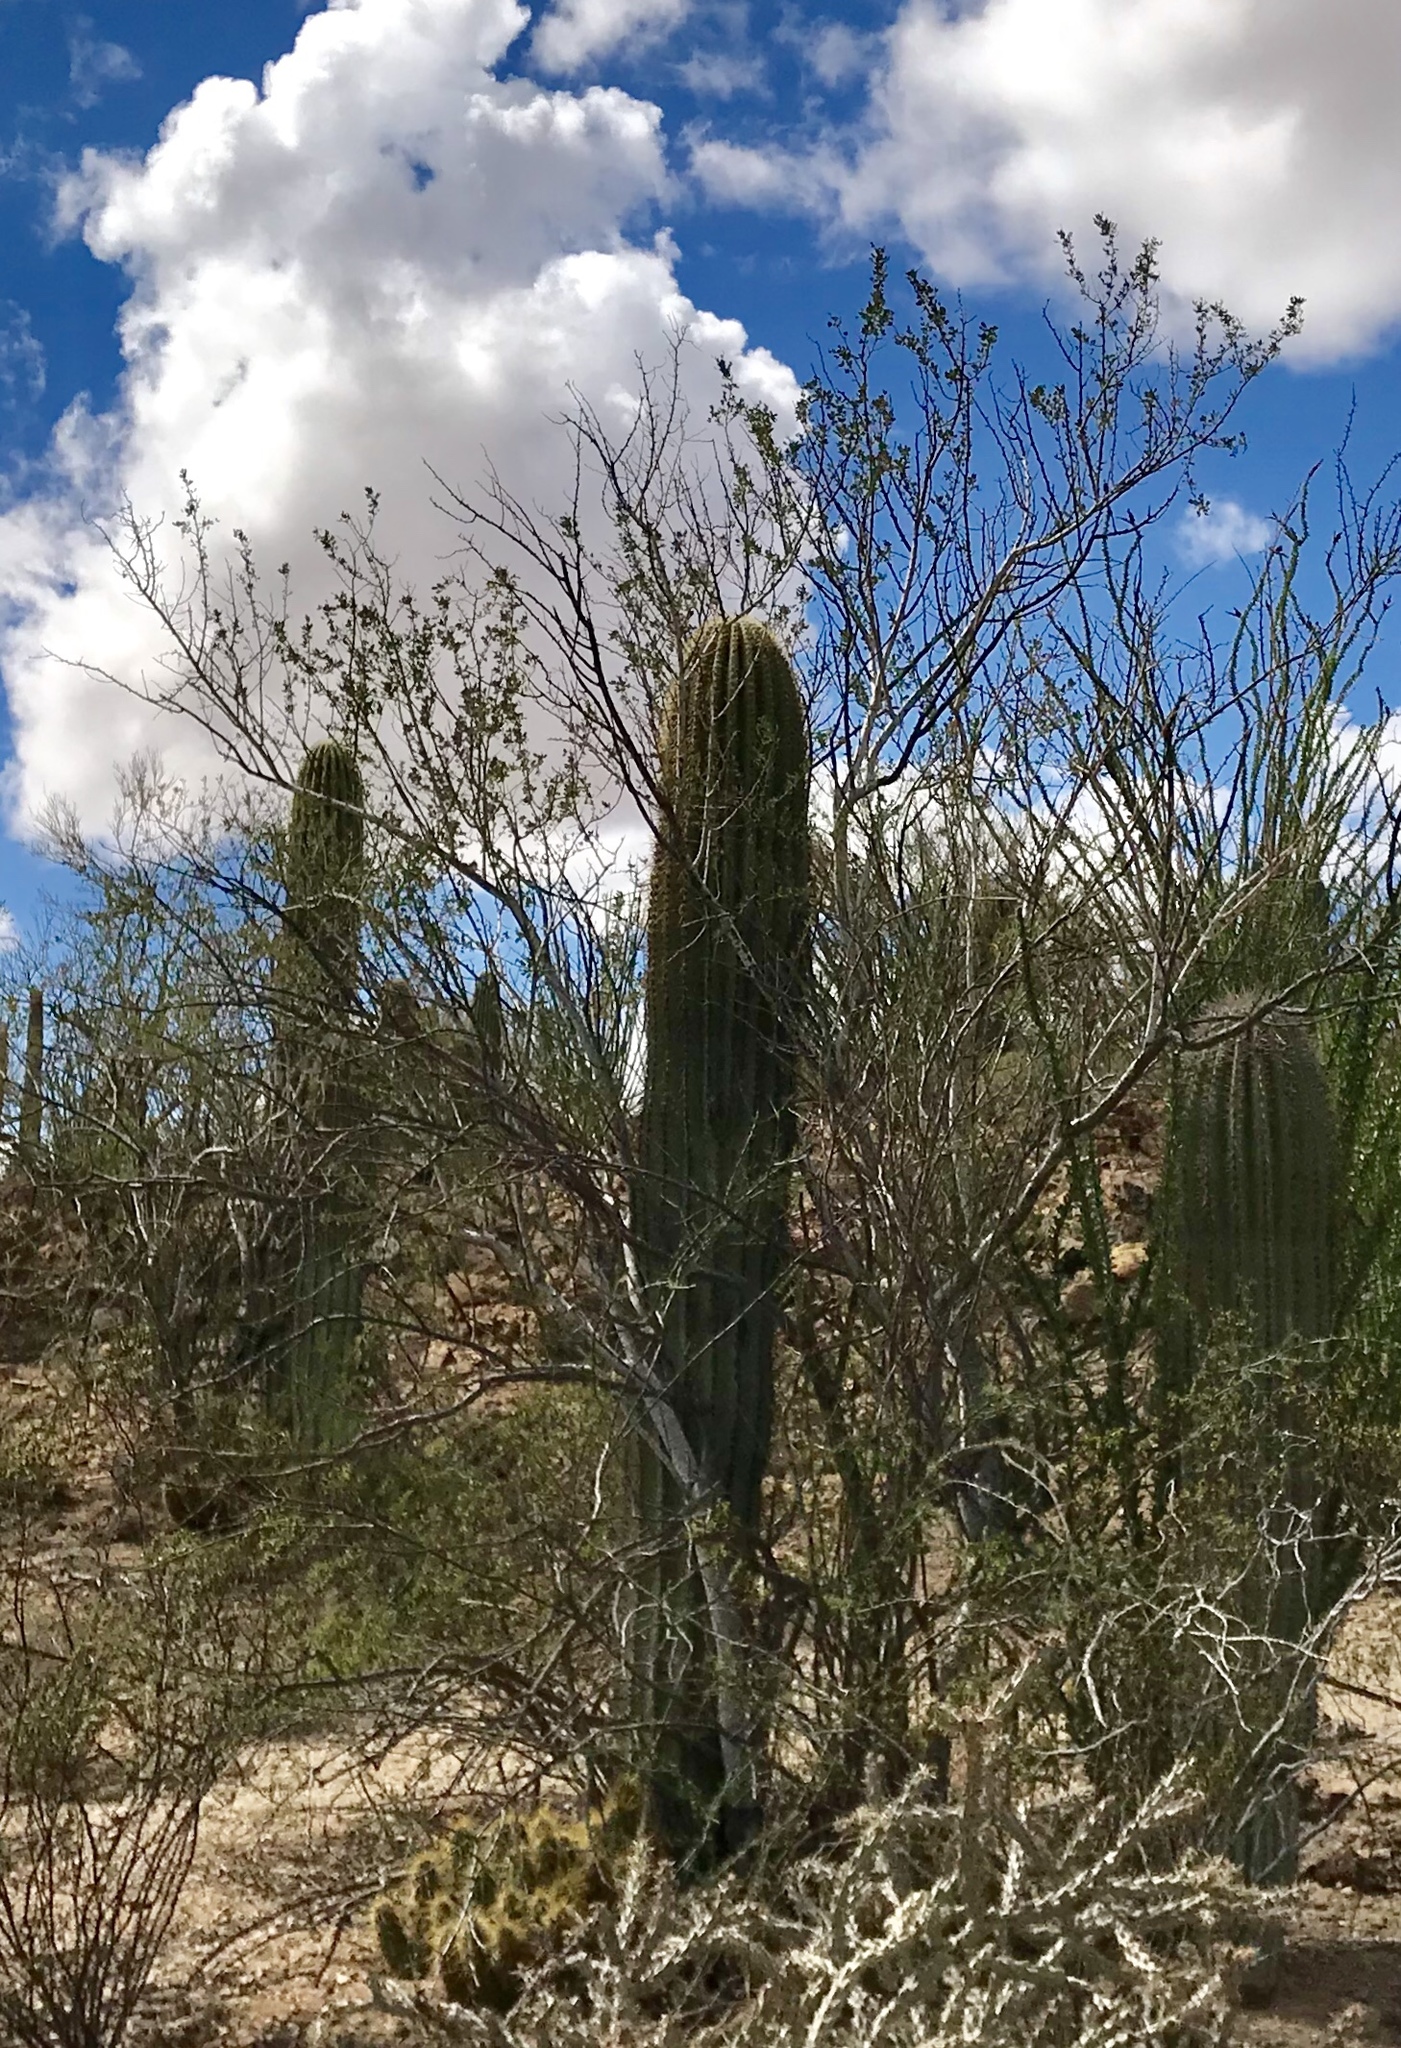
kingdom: Plantae
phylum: Tracheophyta
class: Magnoliopsida
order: Caryophyllales
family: Cactaceae
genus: Carnegiea
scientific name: Carnegiea gigantea
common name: Saguaro
